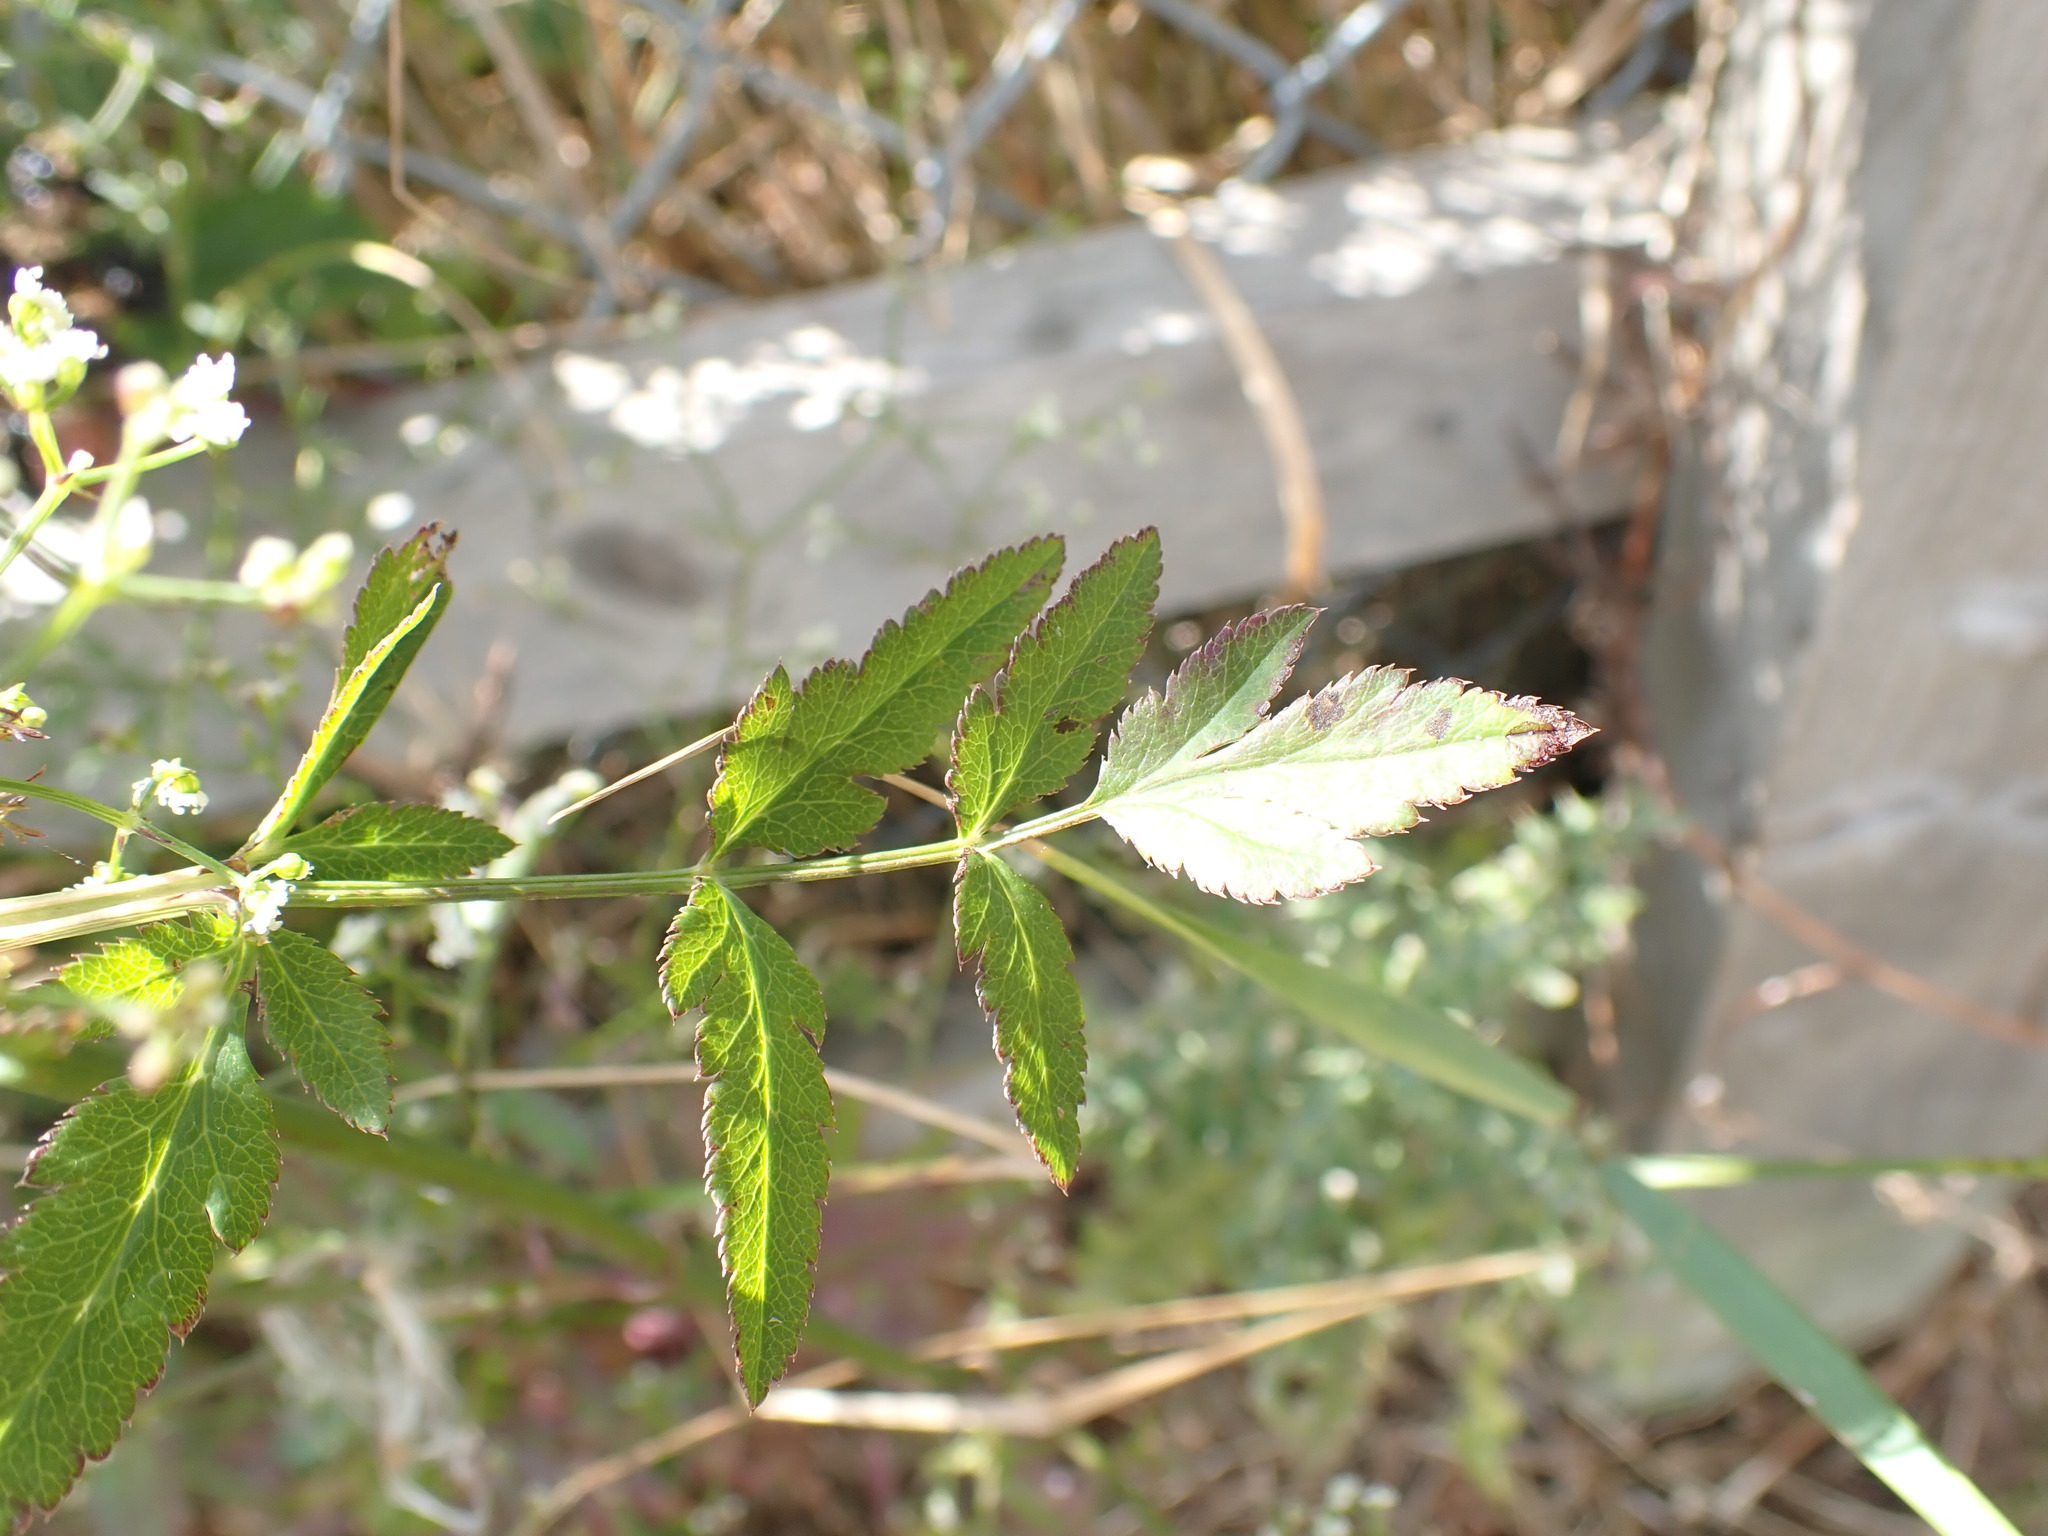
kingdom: Plantae
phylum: Tracheophyta
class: Magnoliopsida
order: Apiales
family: Apiaceae
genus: Sison
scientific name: Sison amomum
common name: Stone-parsley
